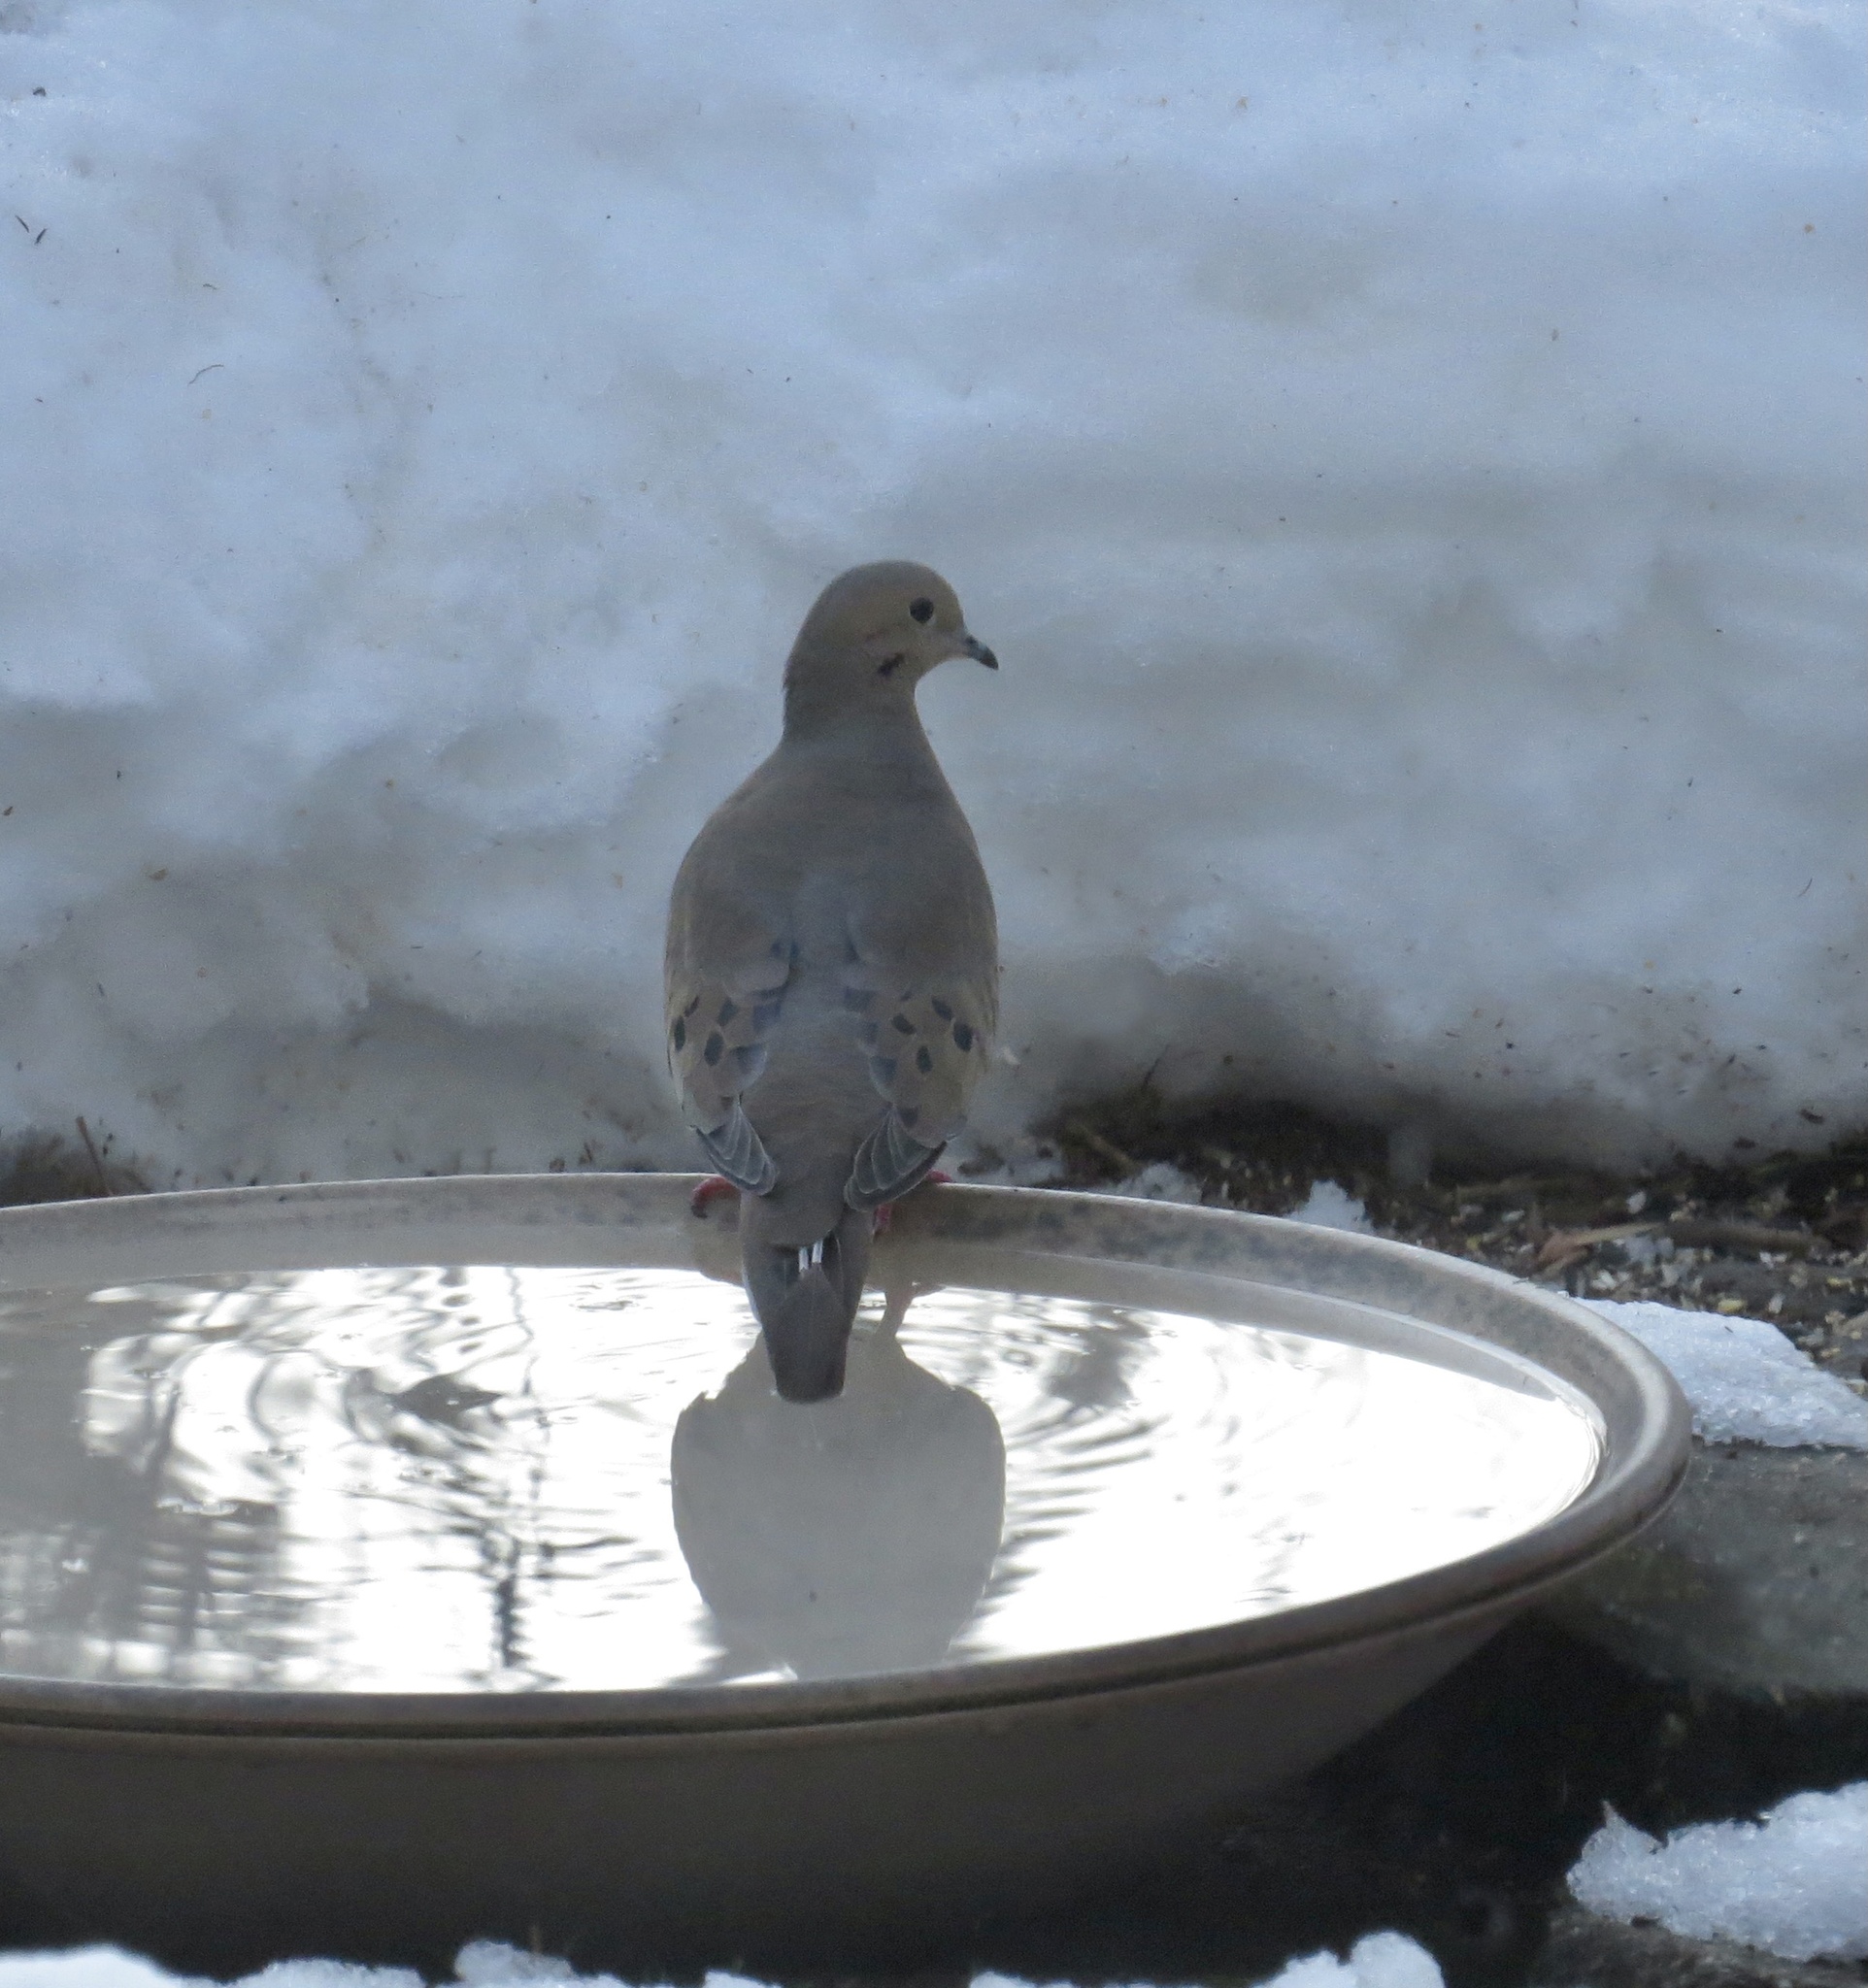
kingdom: Animalia
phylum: Chordata
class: Aves
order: Columbiformes
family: Columbidae
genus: Zenaida
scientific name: Zenaida macroura
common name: Mourning dove
